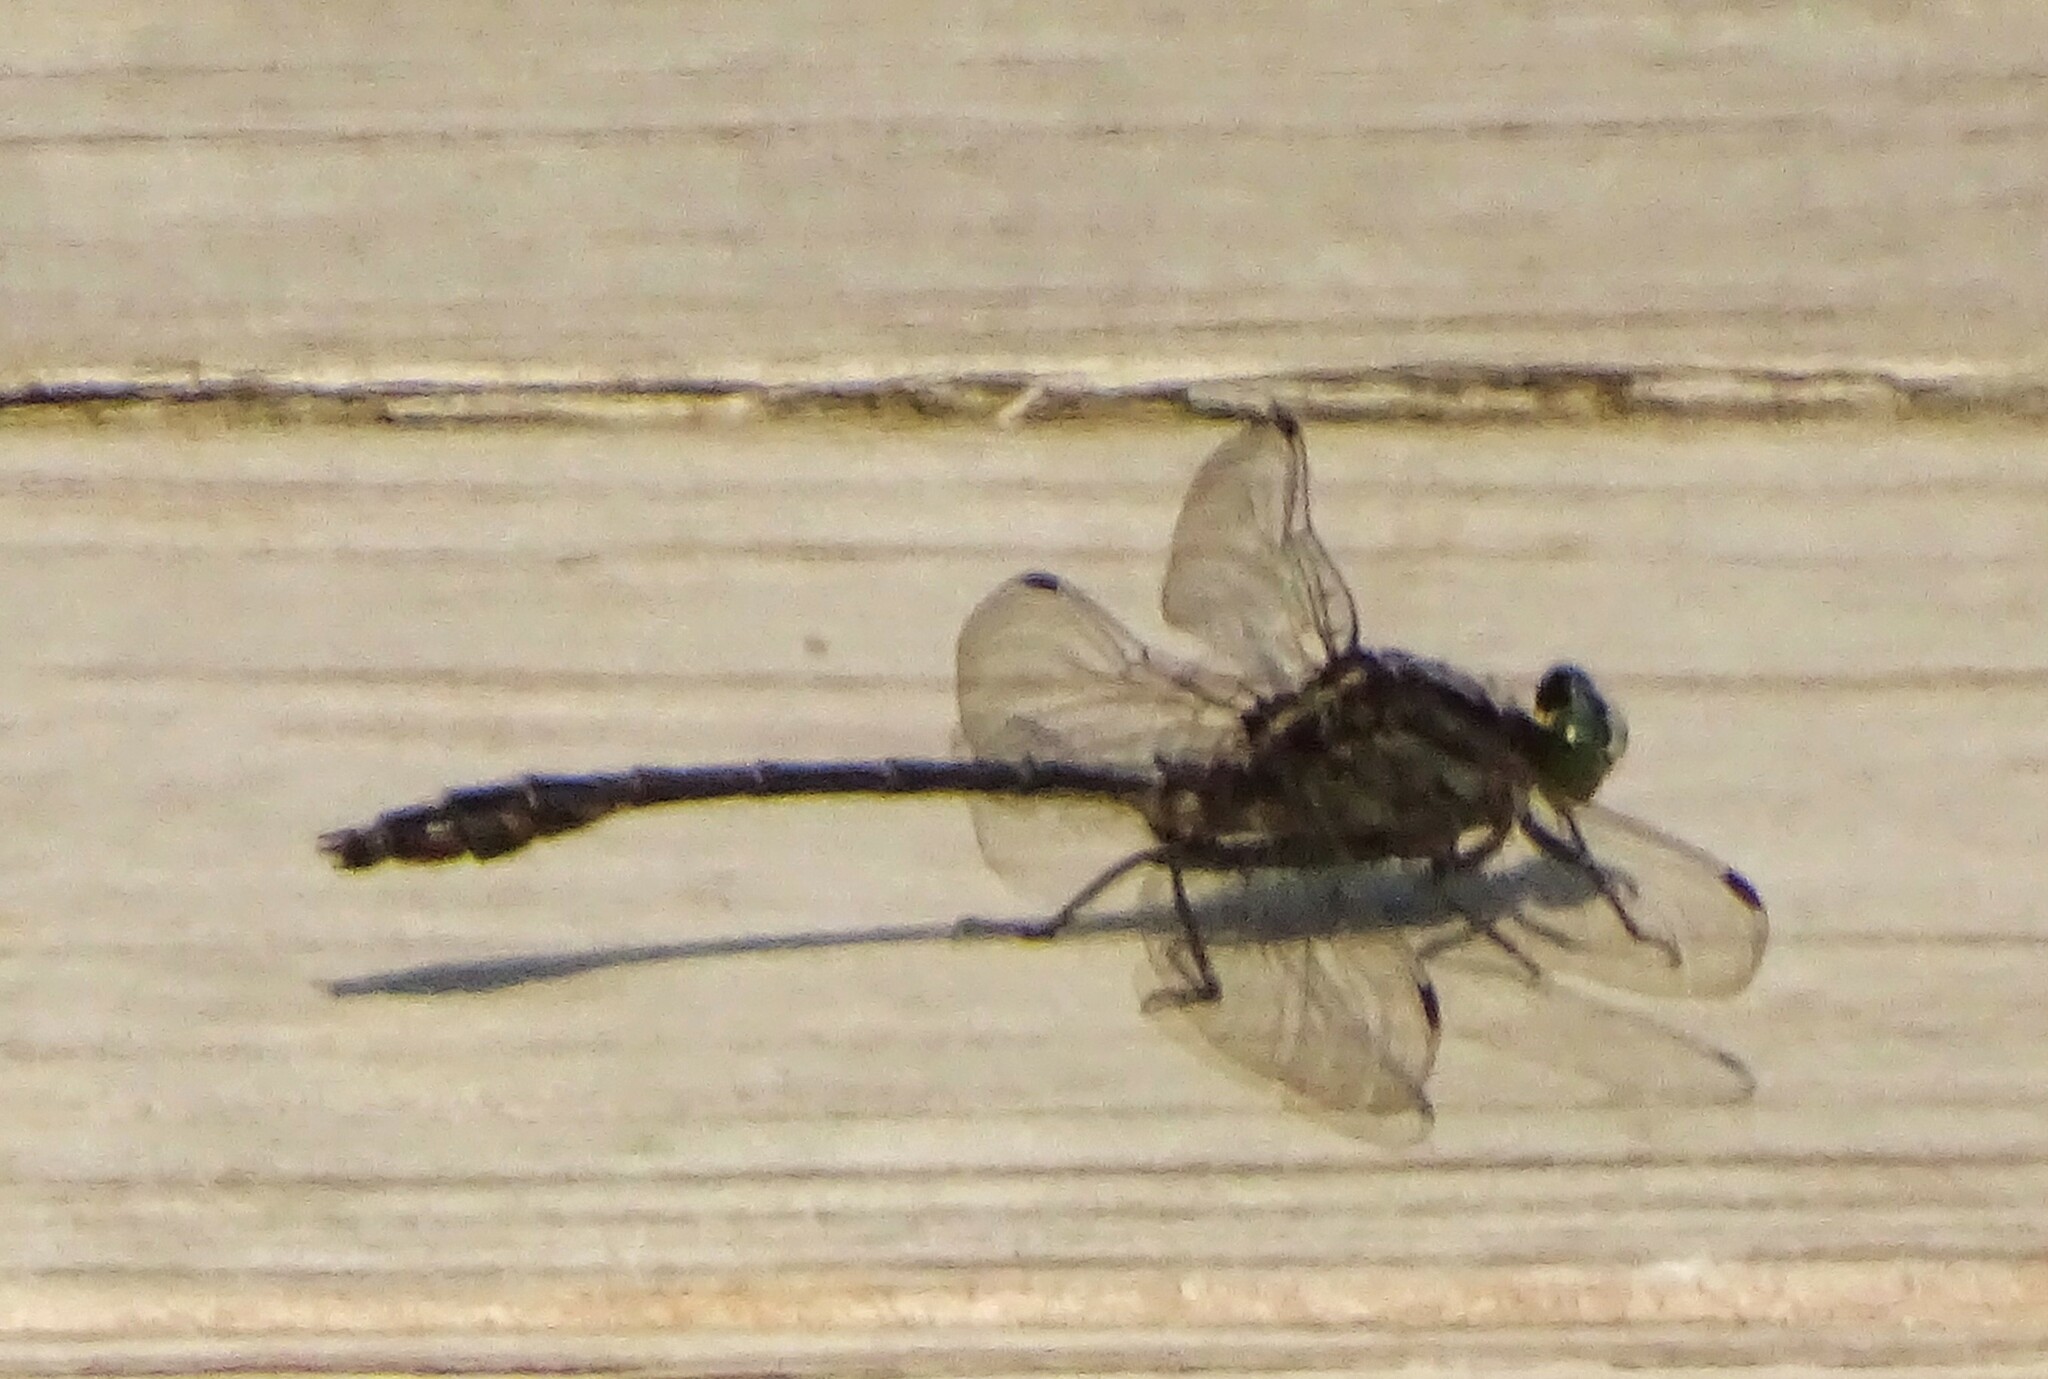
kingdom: Animalia
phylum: Arthropoda
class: Insecta
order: Odonata
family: Gomphidae
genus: Dromogomphus
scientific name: Dromogomphus spinosus
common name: Black-shouldered spinyleg
